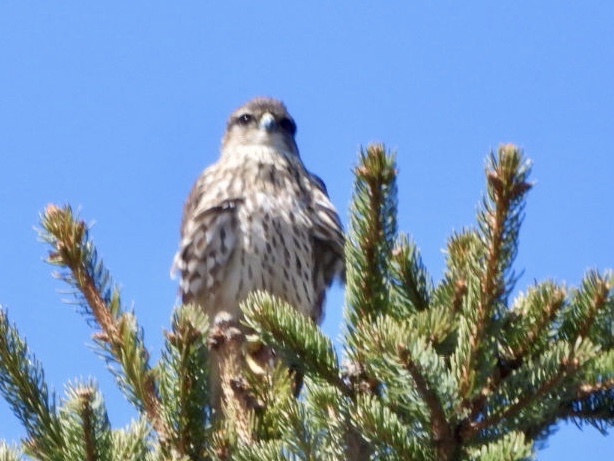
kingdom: Animalia
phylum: Chordata
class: Aves
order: Falconiformes
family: Falconidae
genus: Falco
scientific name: Falco columbarius
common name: Merlin
